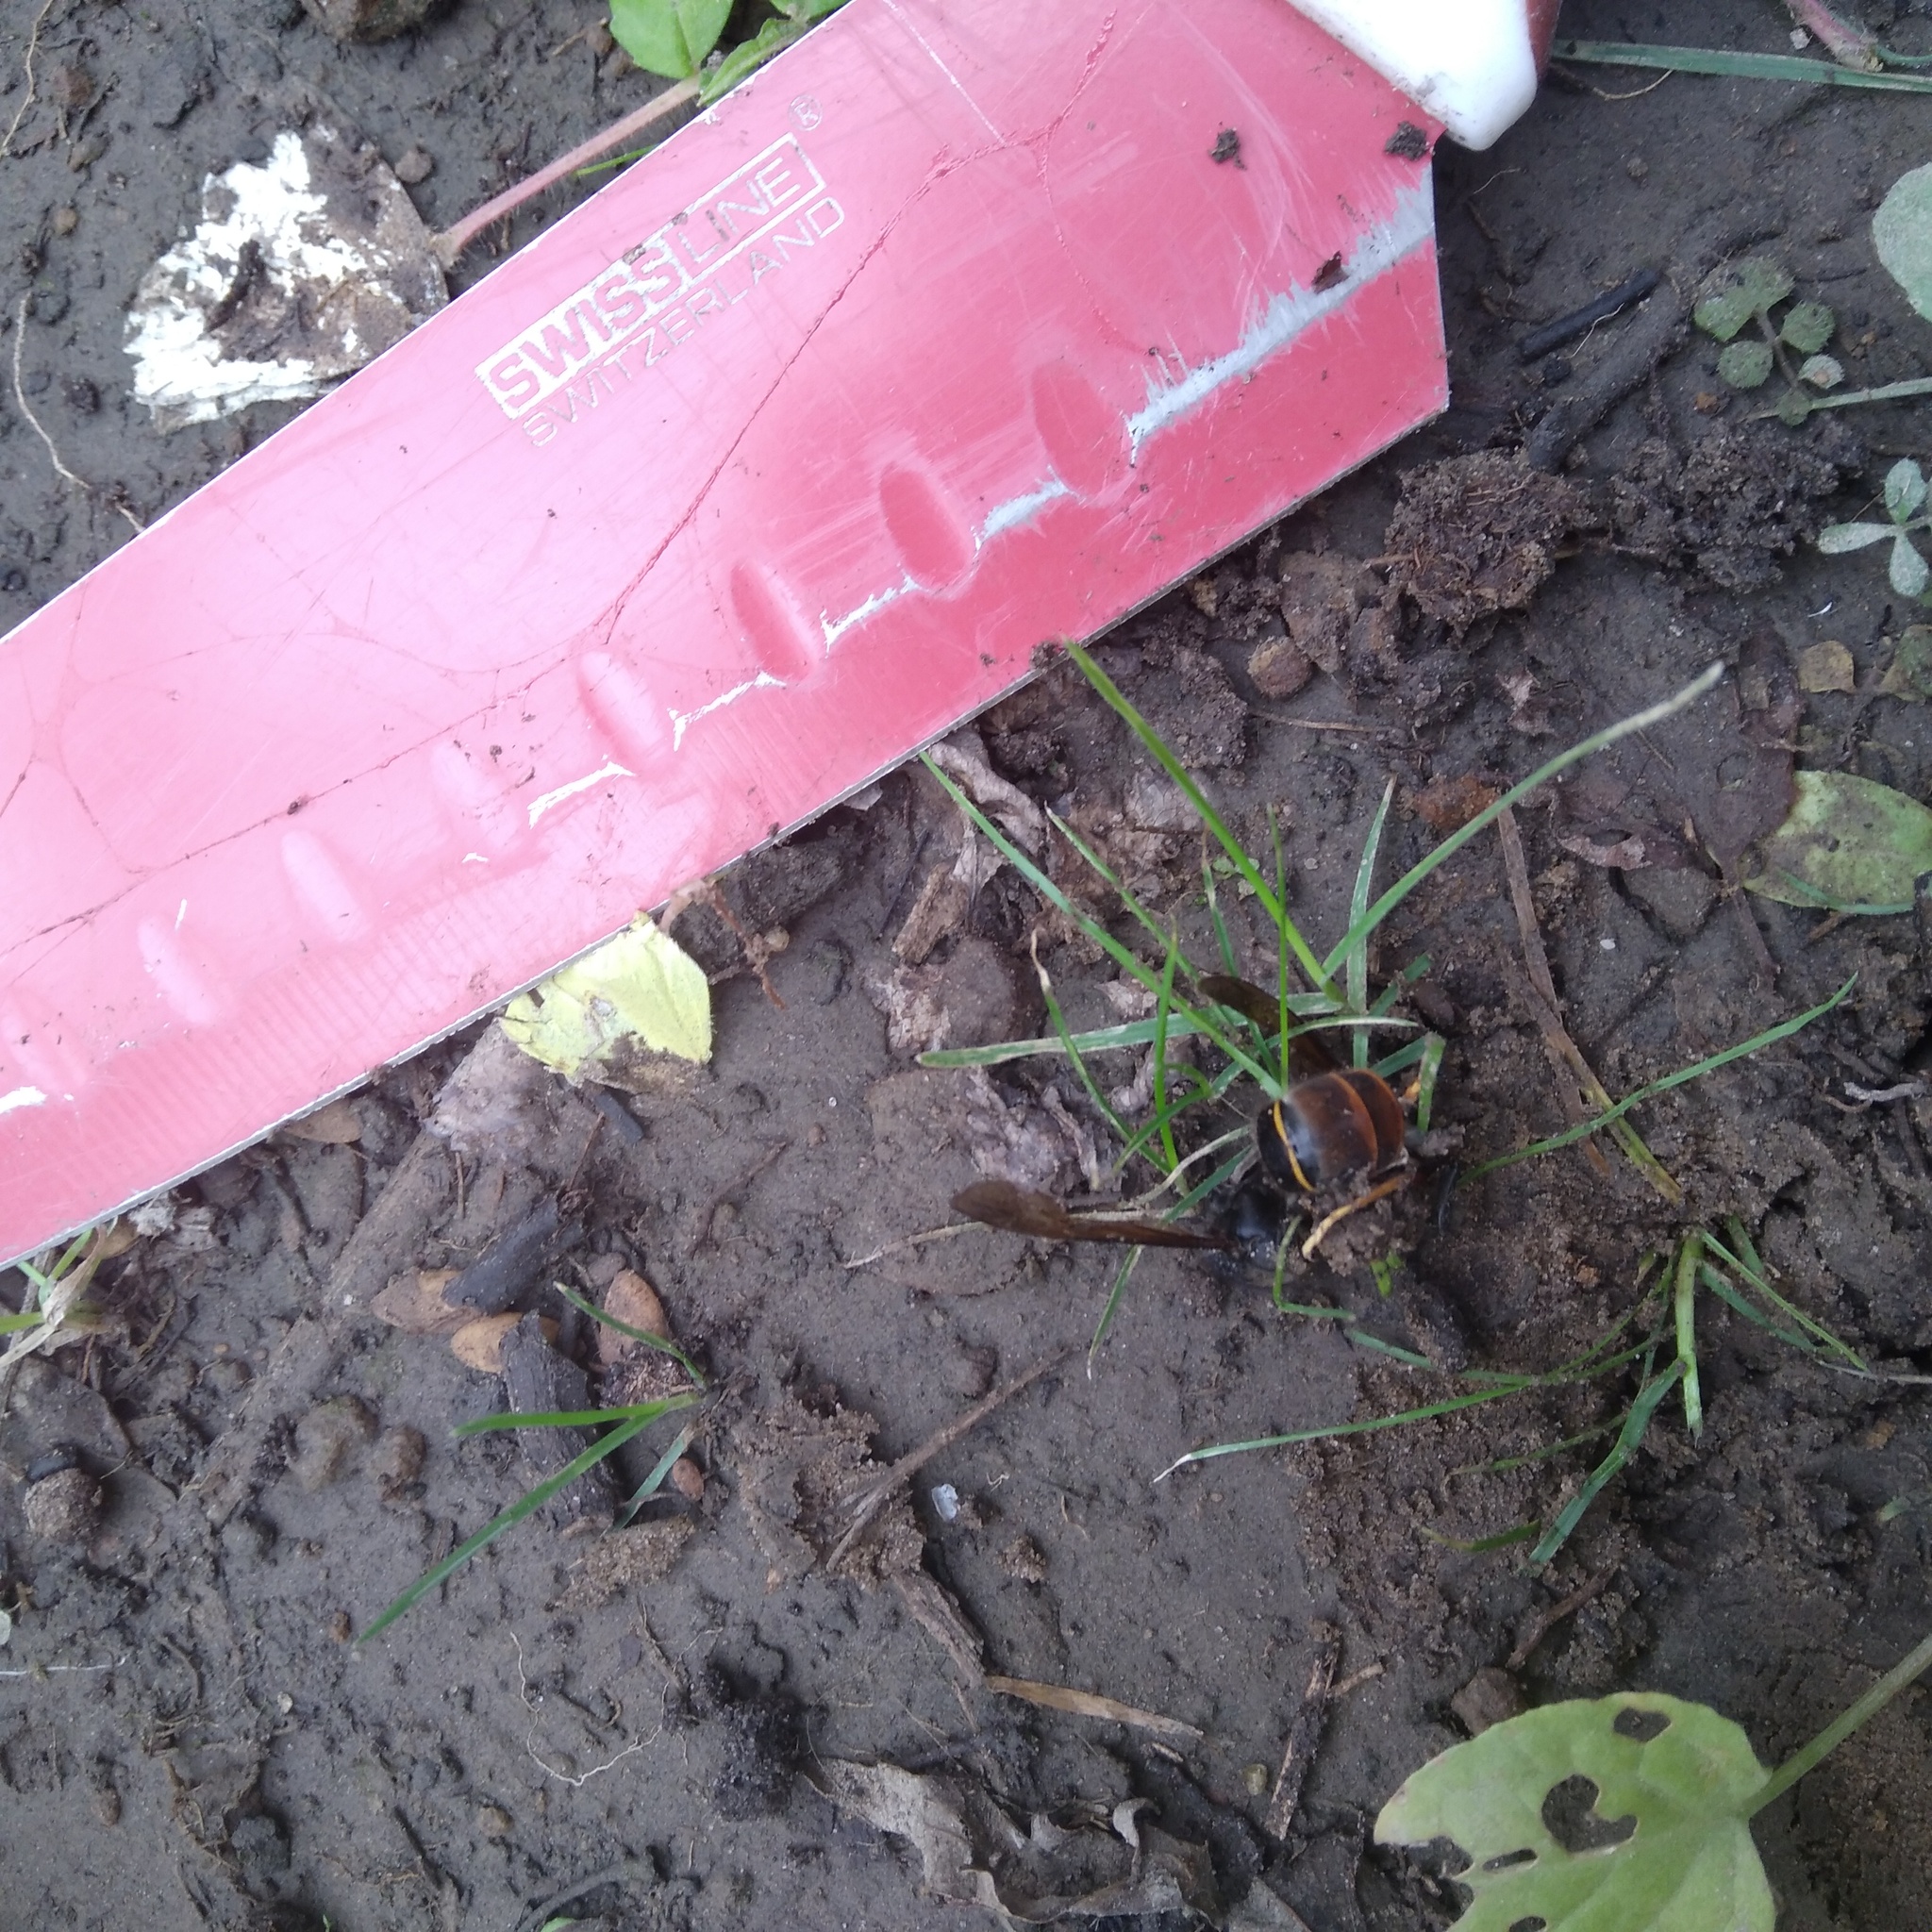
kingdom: Animalia
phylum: Arthropoda
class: Insecta
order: Hymenoptera
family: Vespidae
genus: Vespa
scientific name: Vespa velutina
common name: Asian hornet
